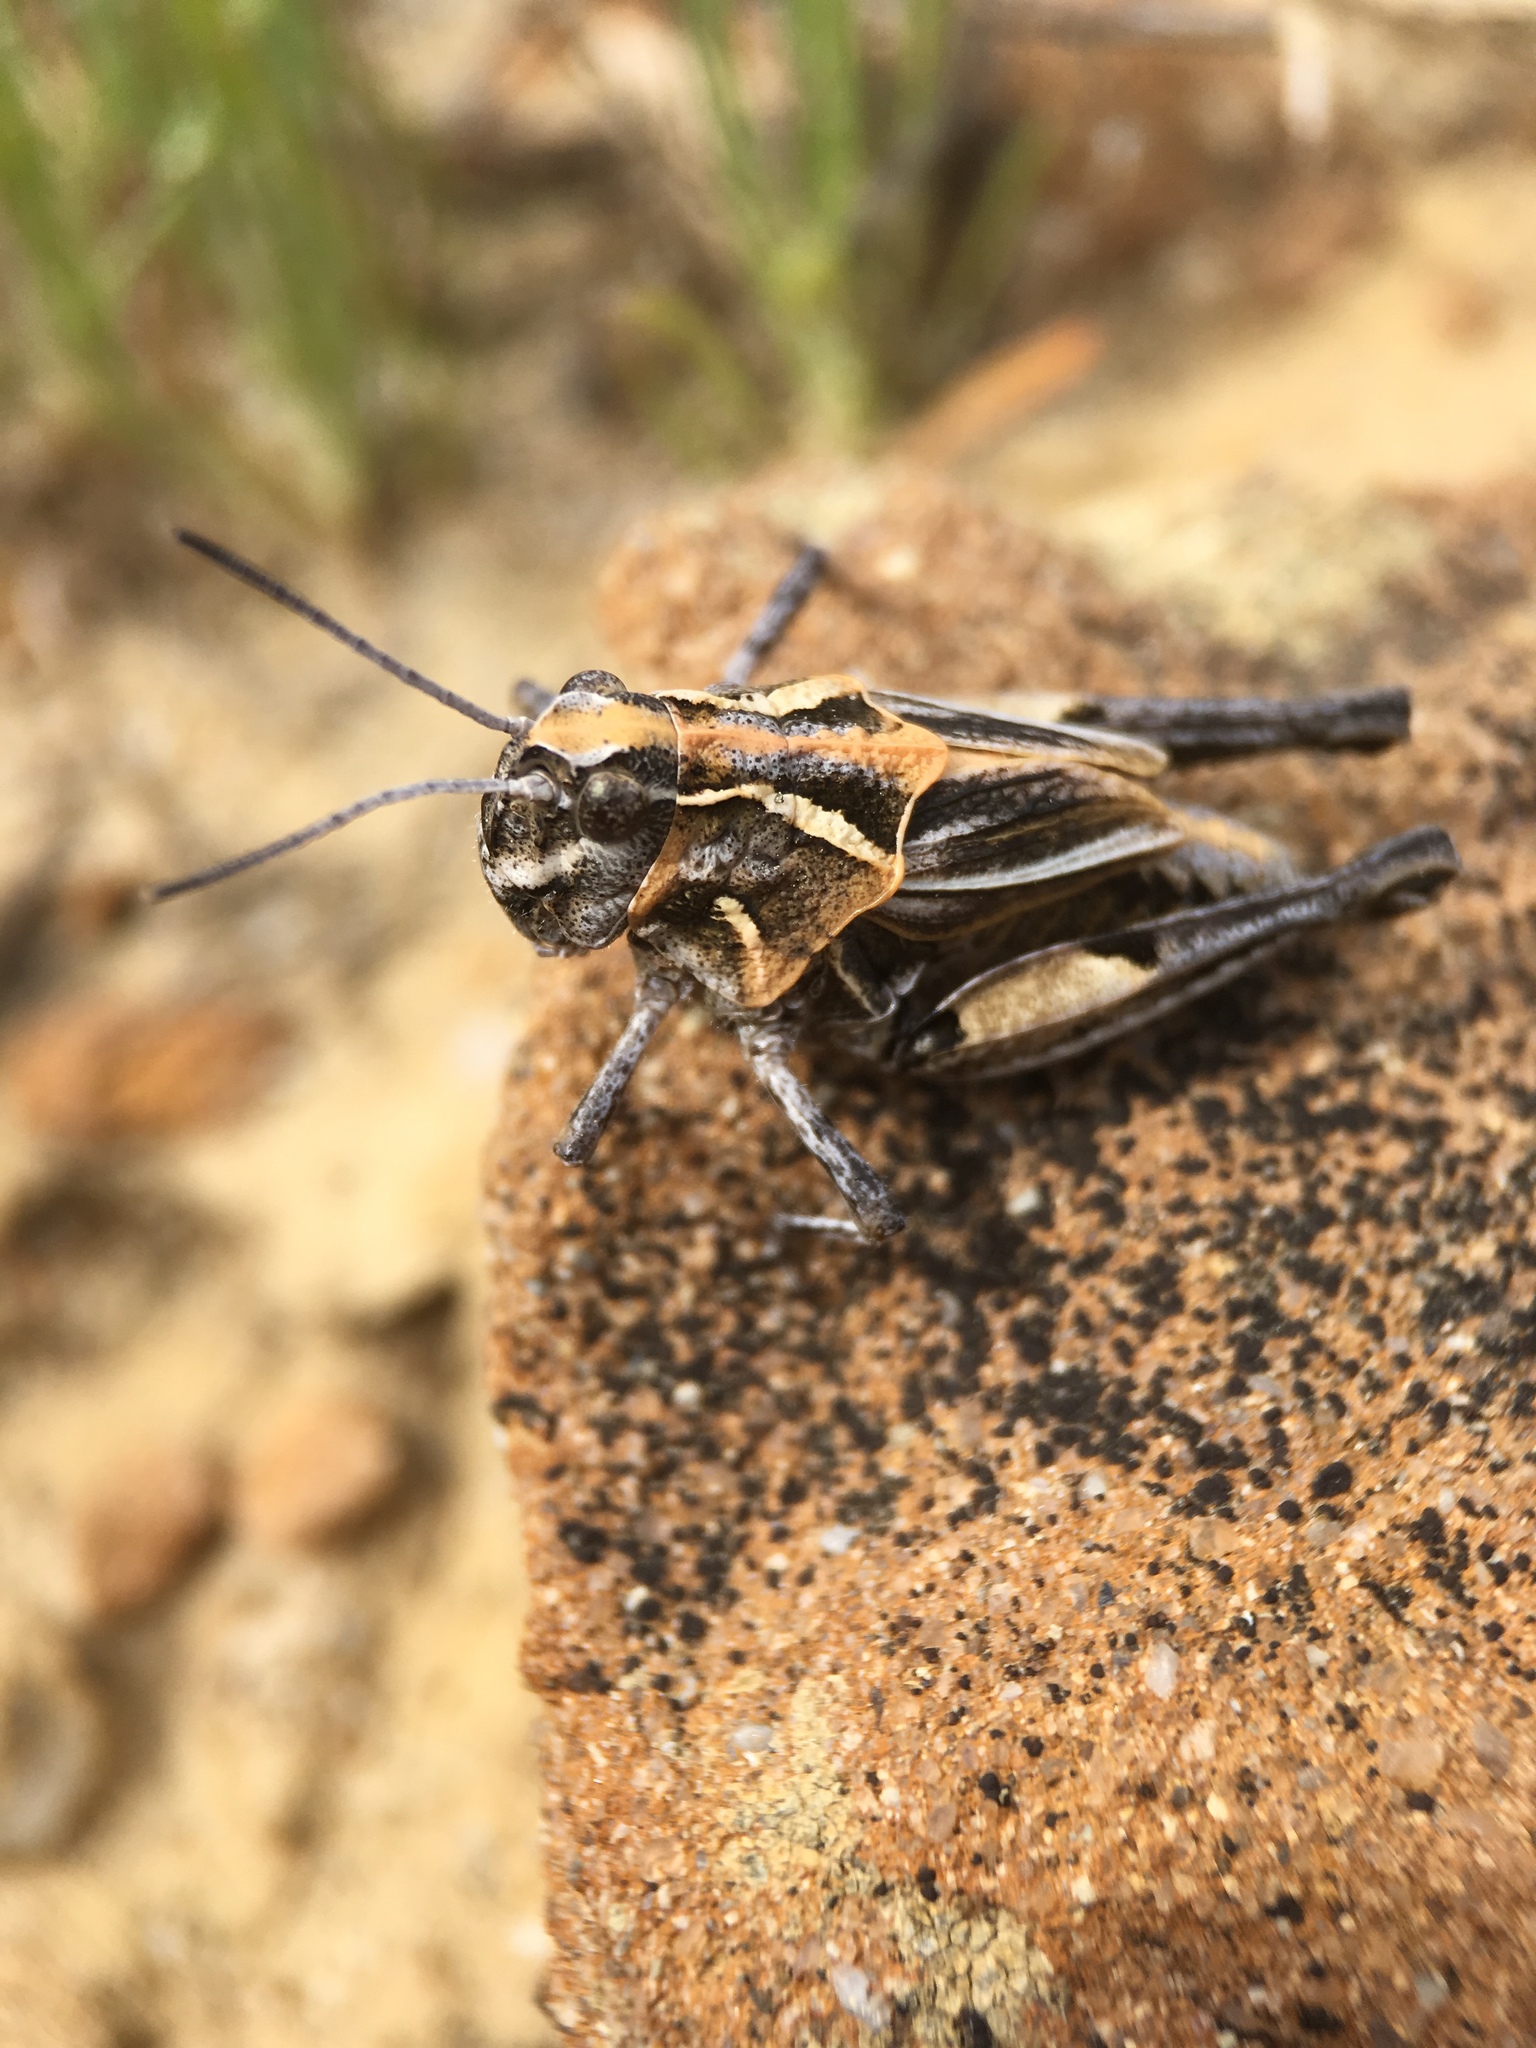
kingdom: Animalia
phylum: Arthropoda
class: Insecta
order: Orthoptera
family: Acrididae
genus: Esselenia
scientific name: Esselenia vanduzeei
